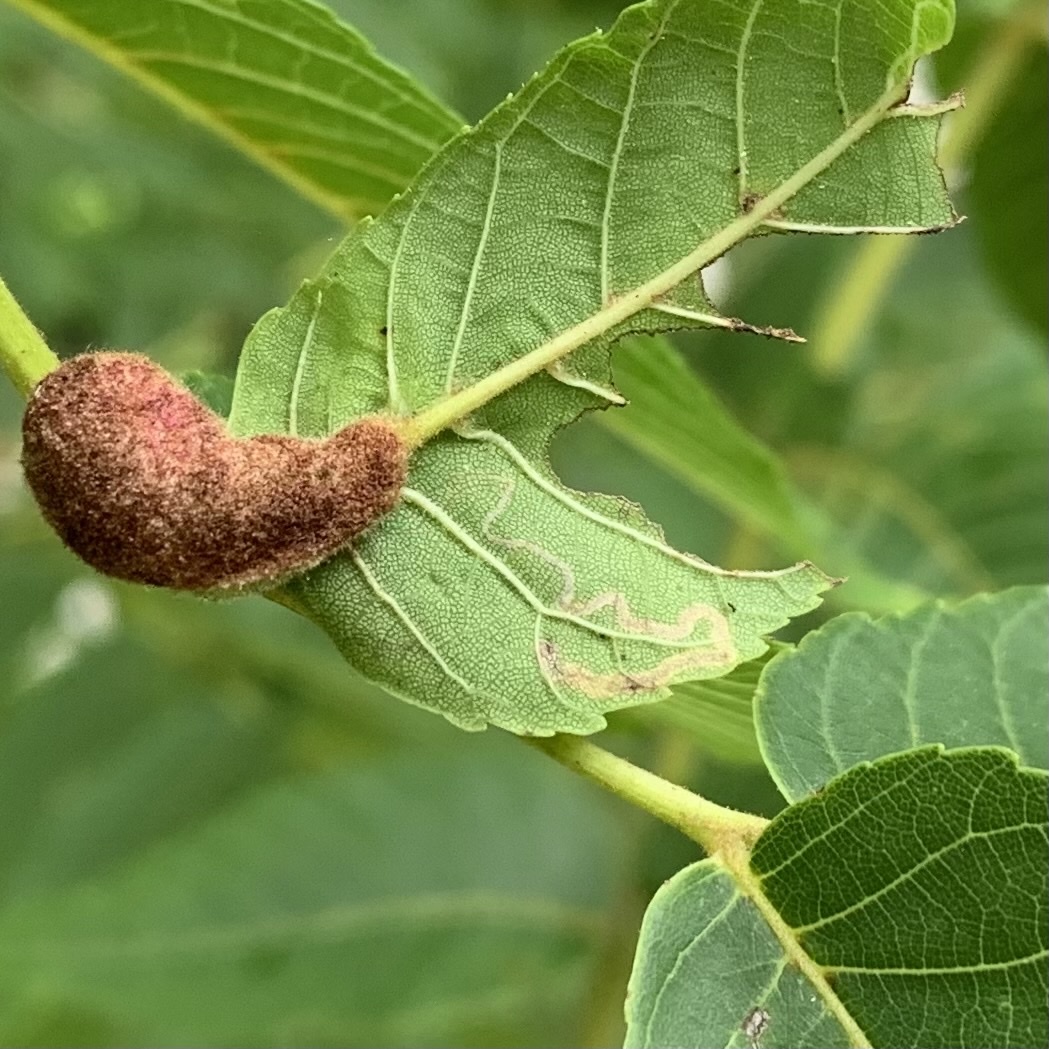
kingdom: Animalia
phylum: Arthropoda
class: Insecta
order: Lepidoptera
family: Nepticulidae
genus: Stigmella
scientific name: Stigmella juglandifoliella
